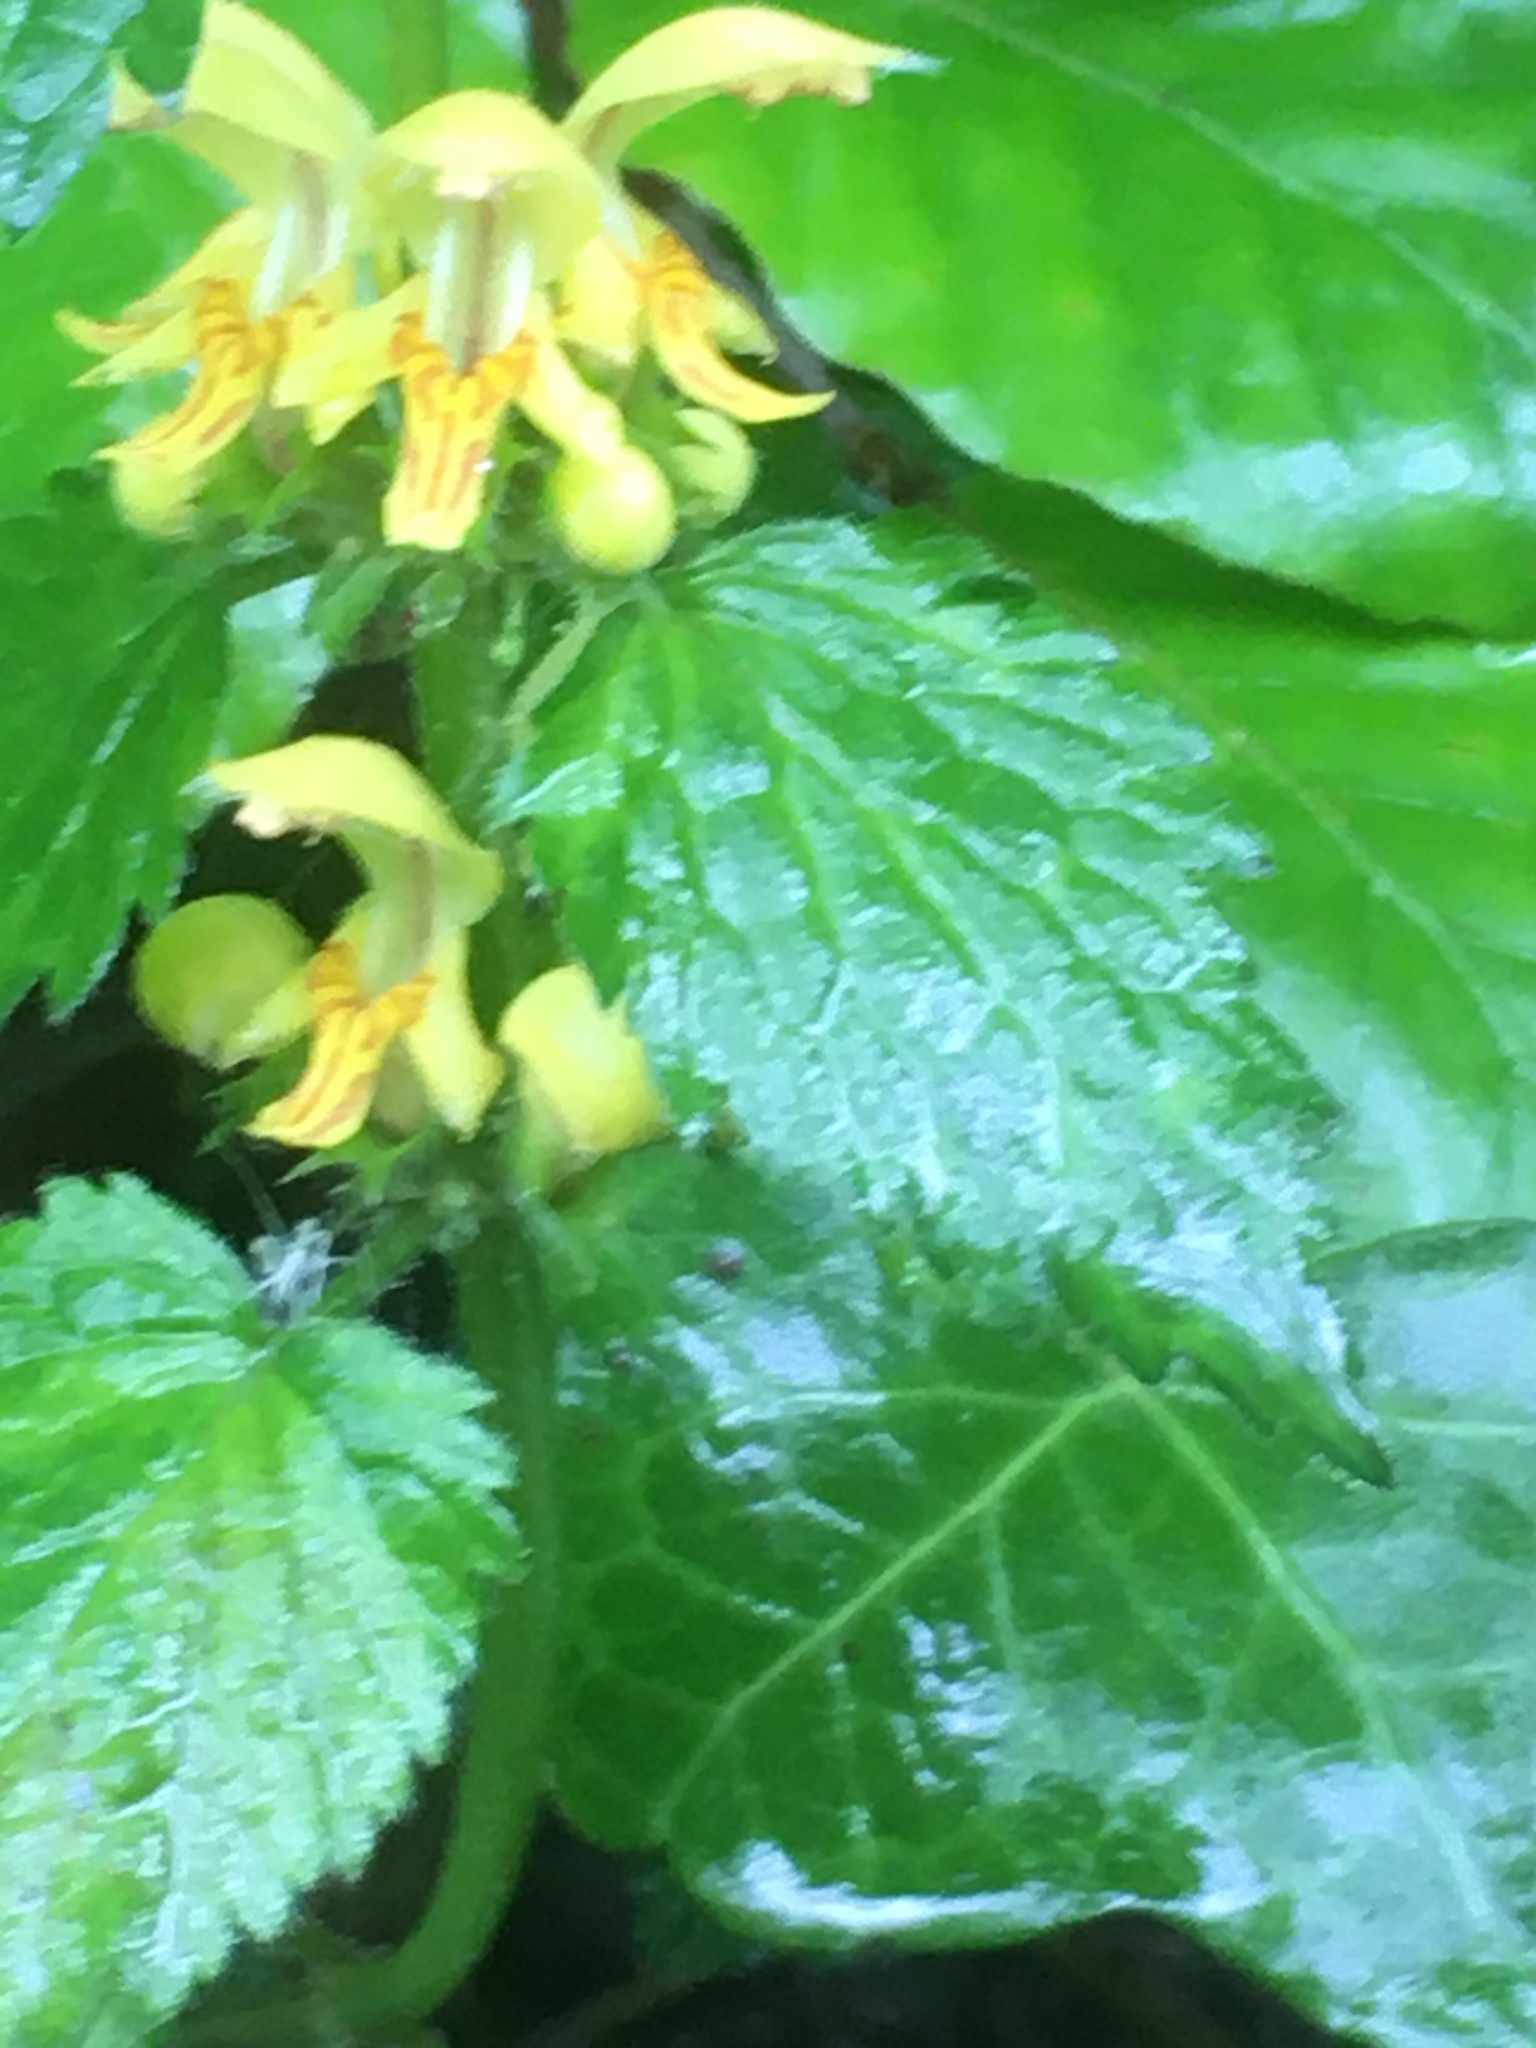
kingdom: Plantae
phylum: Tracheophyta
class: Magnoliopsida
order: Lamiales
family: Lamiaceae
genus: Lamium
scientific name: Lamium galeobdolon
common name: Yellow archangel
